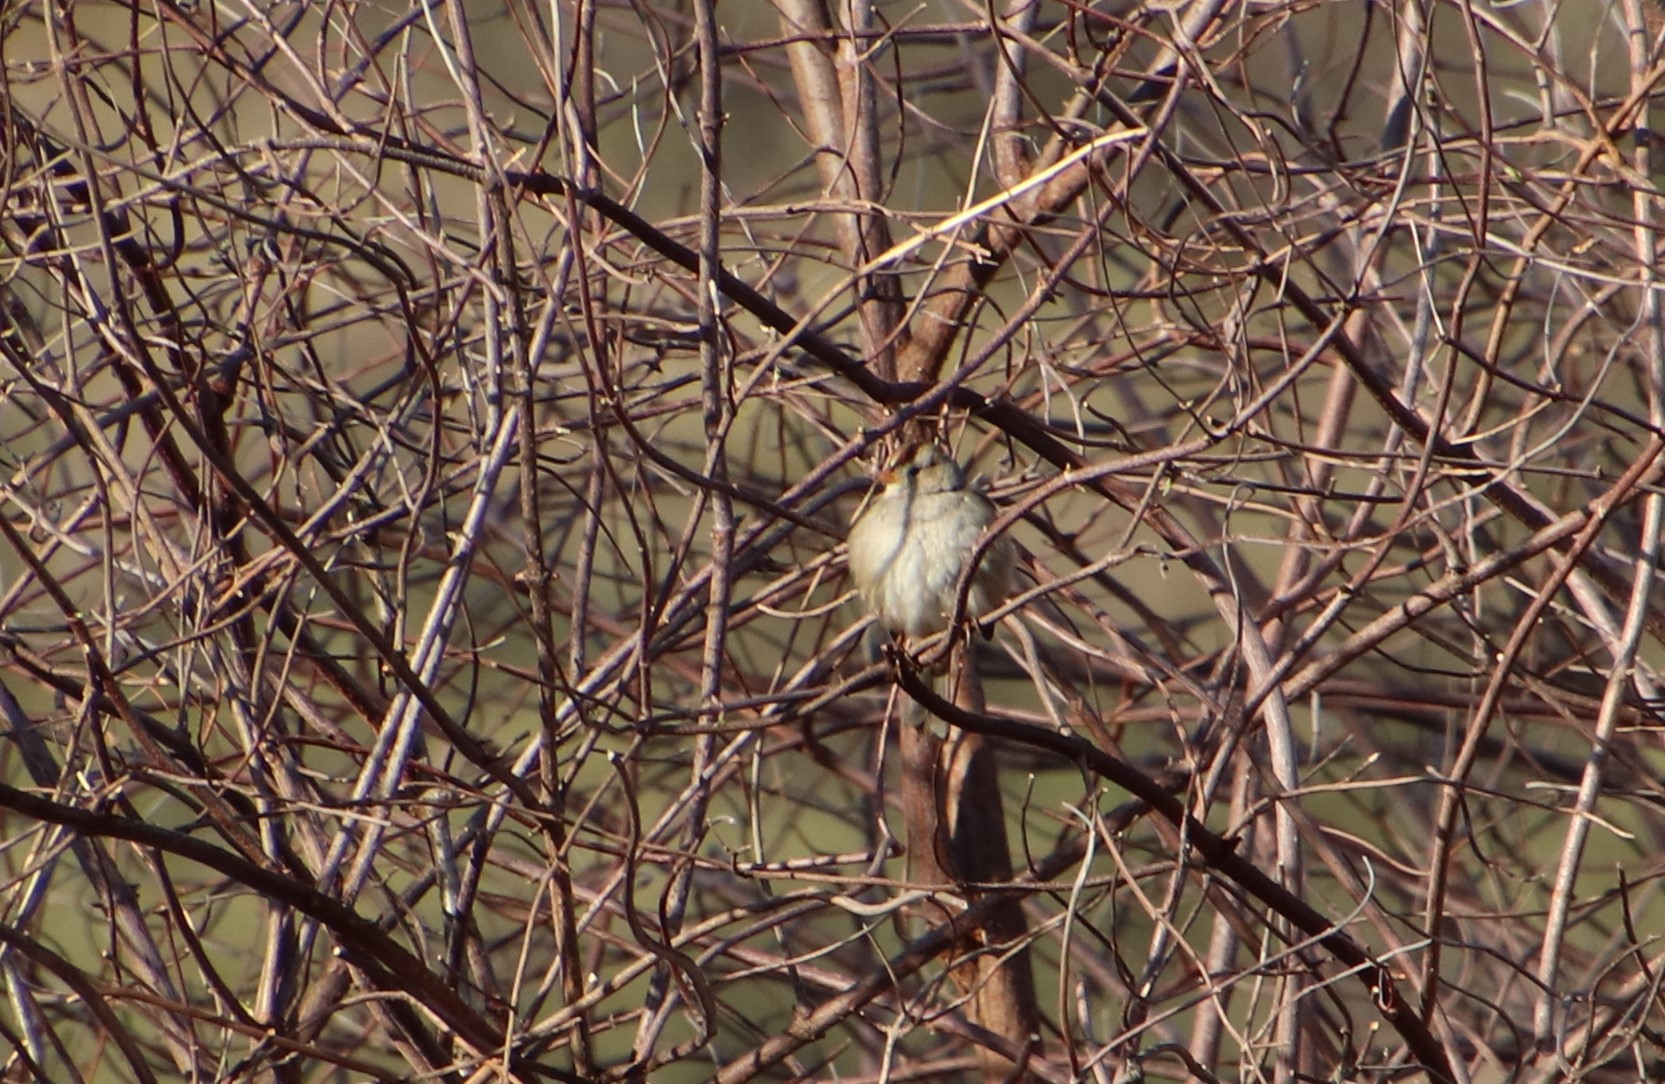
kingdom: Animalia
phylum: Chordata
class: Aves
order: Passeriformes
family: Passerellidae
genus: Zonotrichia
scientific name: Zonotrichia leucophrys
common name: White-crowned sparrow
